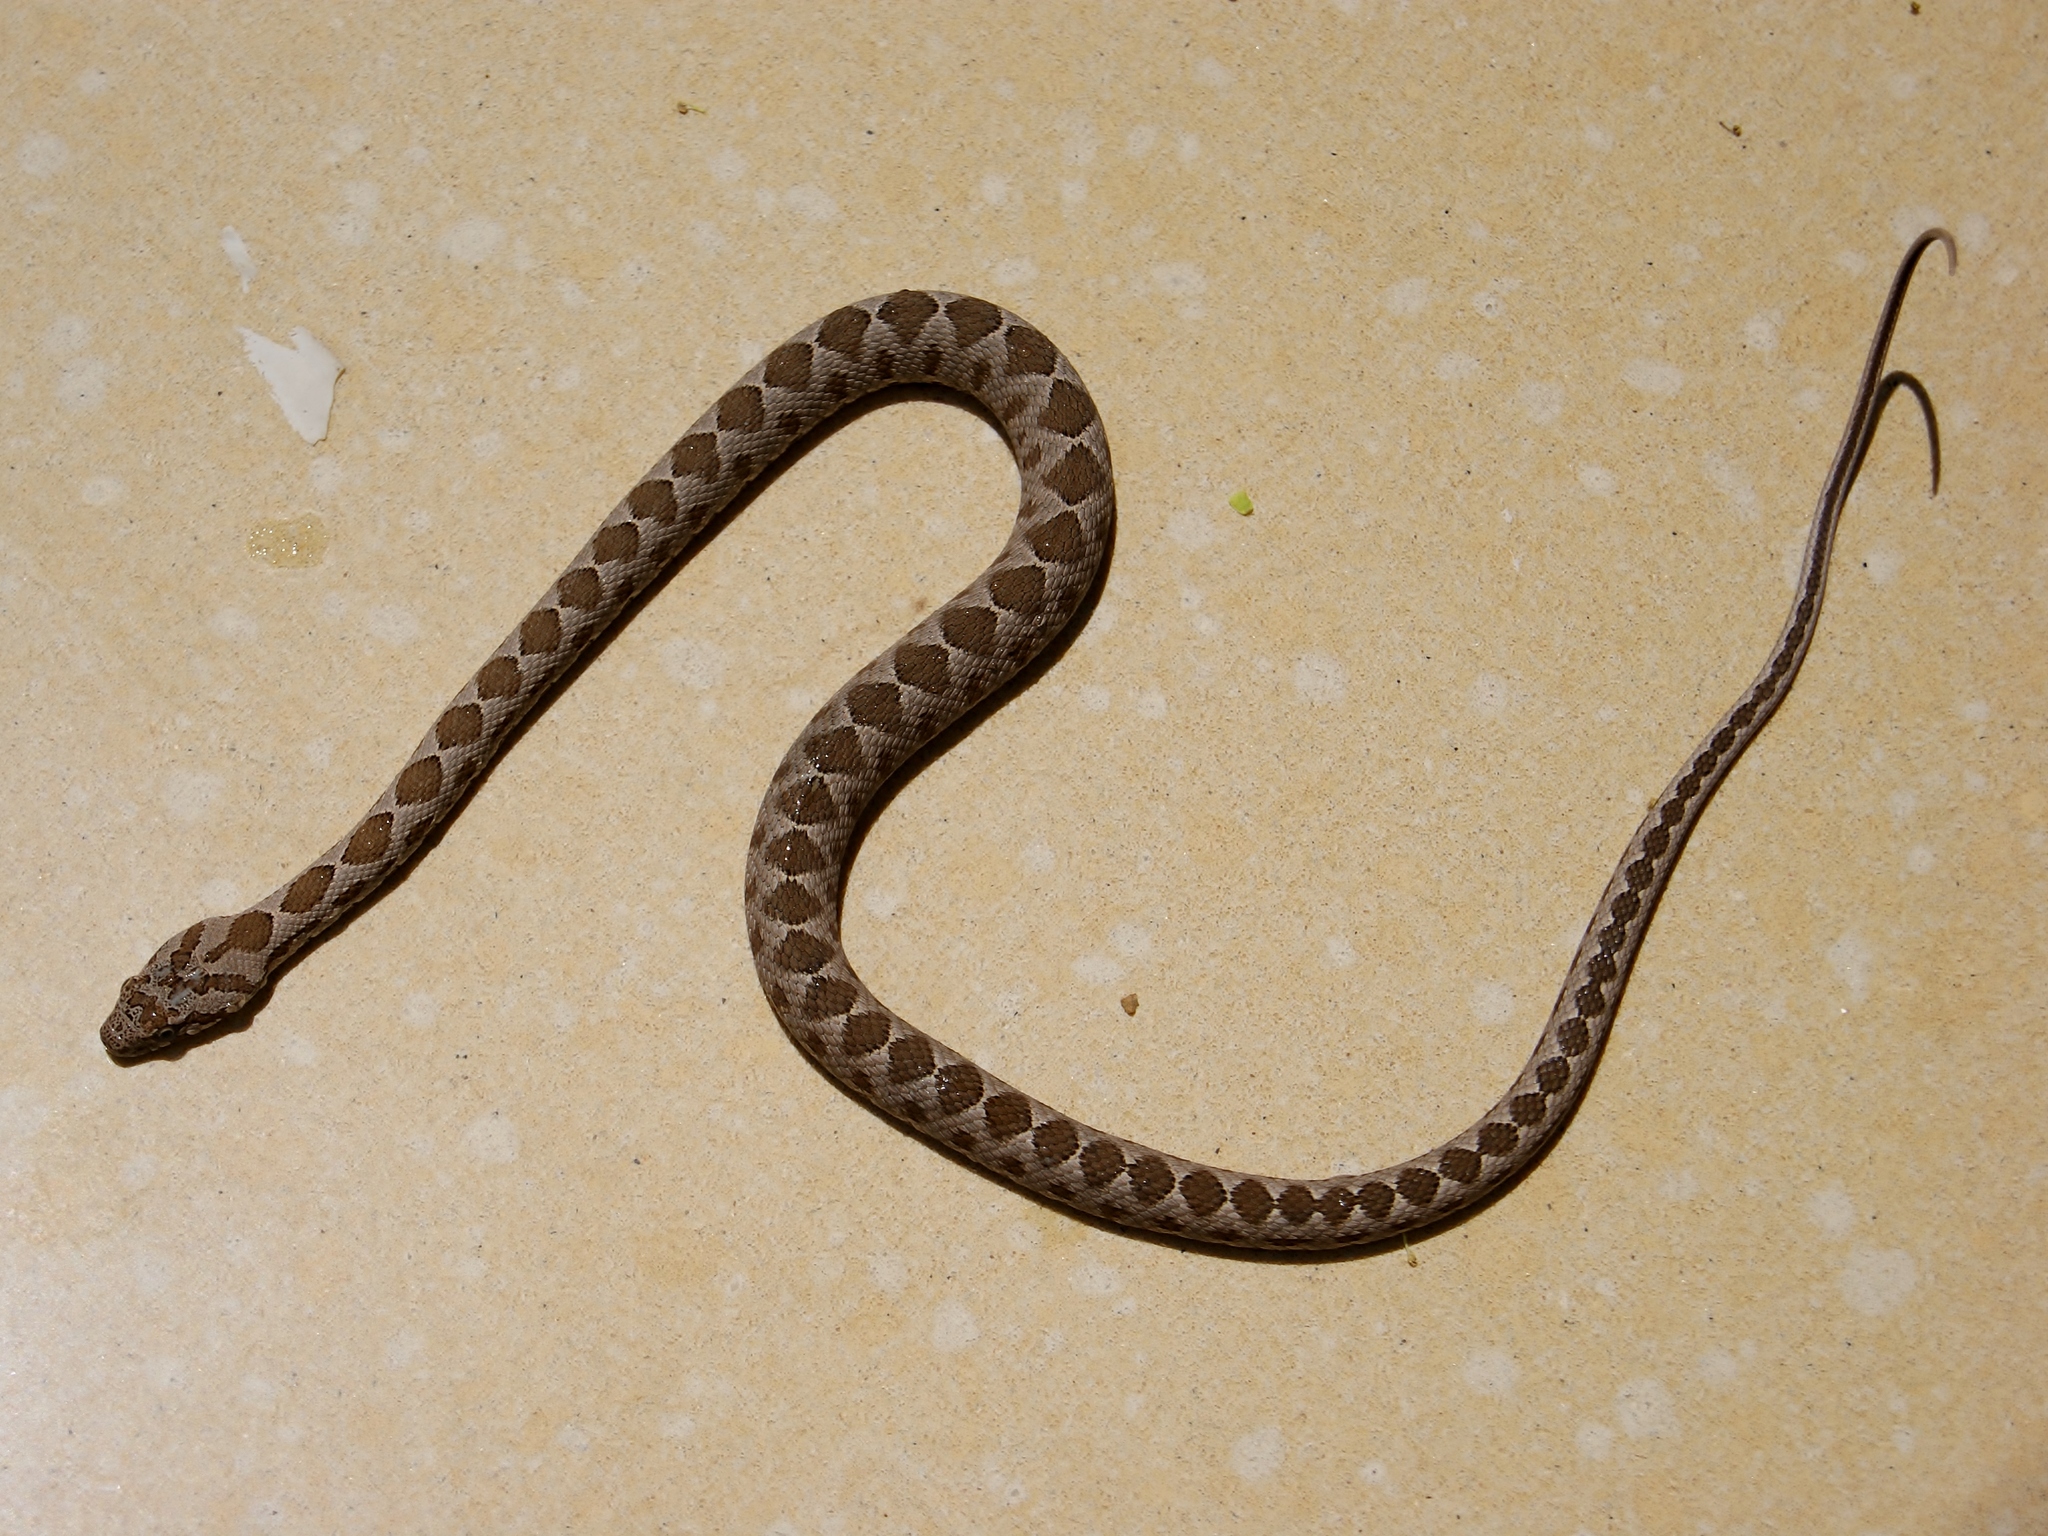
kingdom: Animalia
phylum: Chordata
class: Squamata
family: Colubridae
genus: Hemorrhois
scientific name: Hemorrhois nummifer
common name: Asian racer
